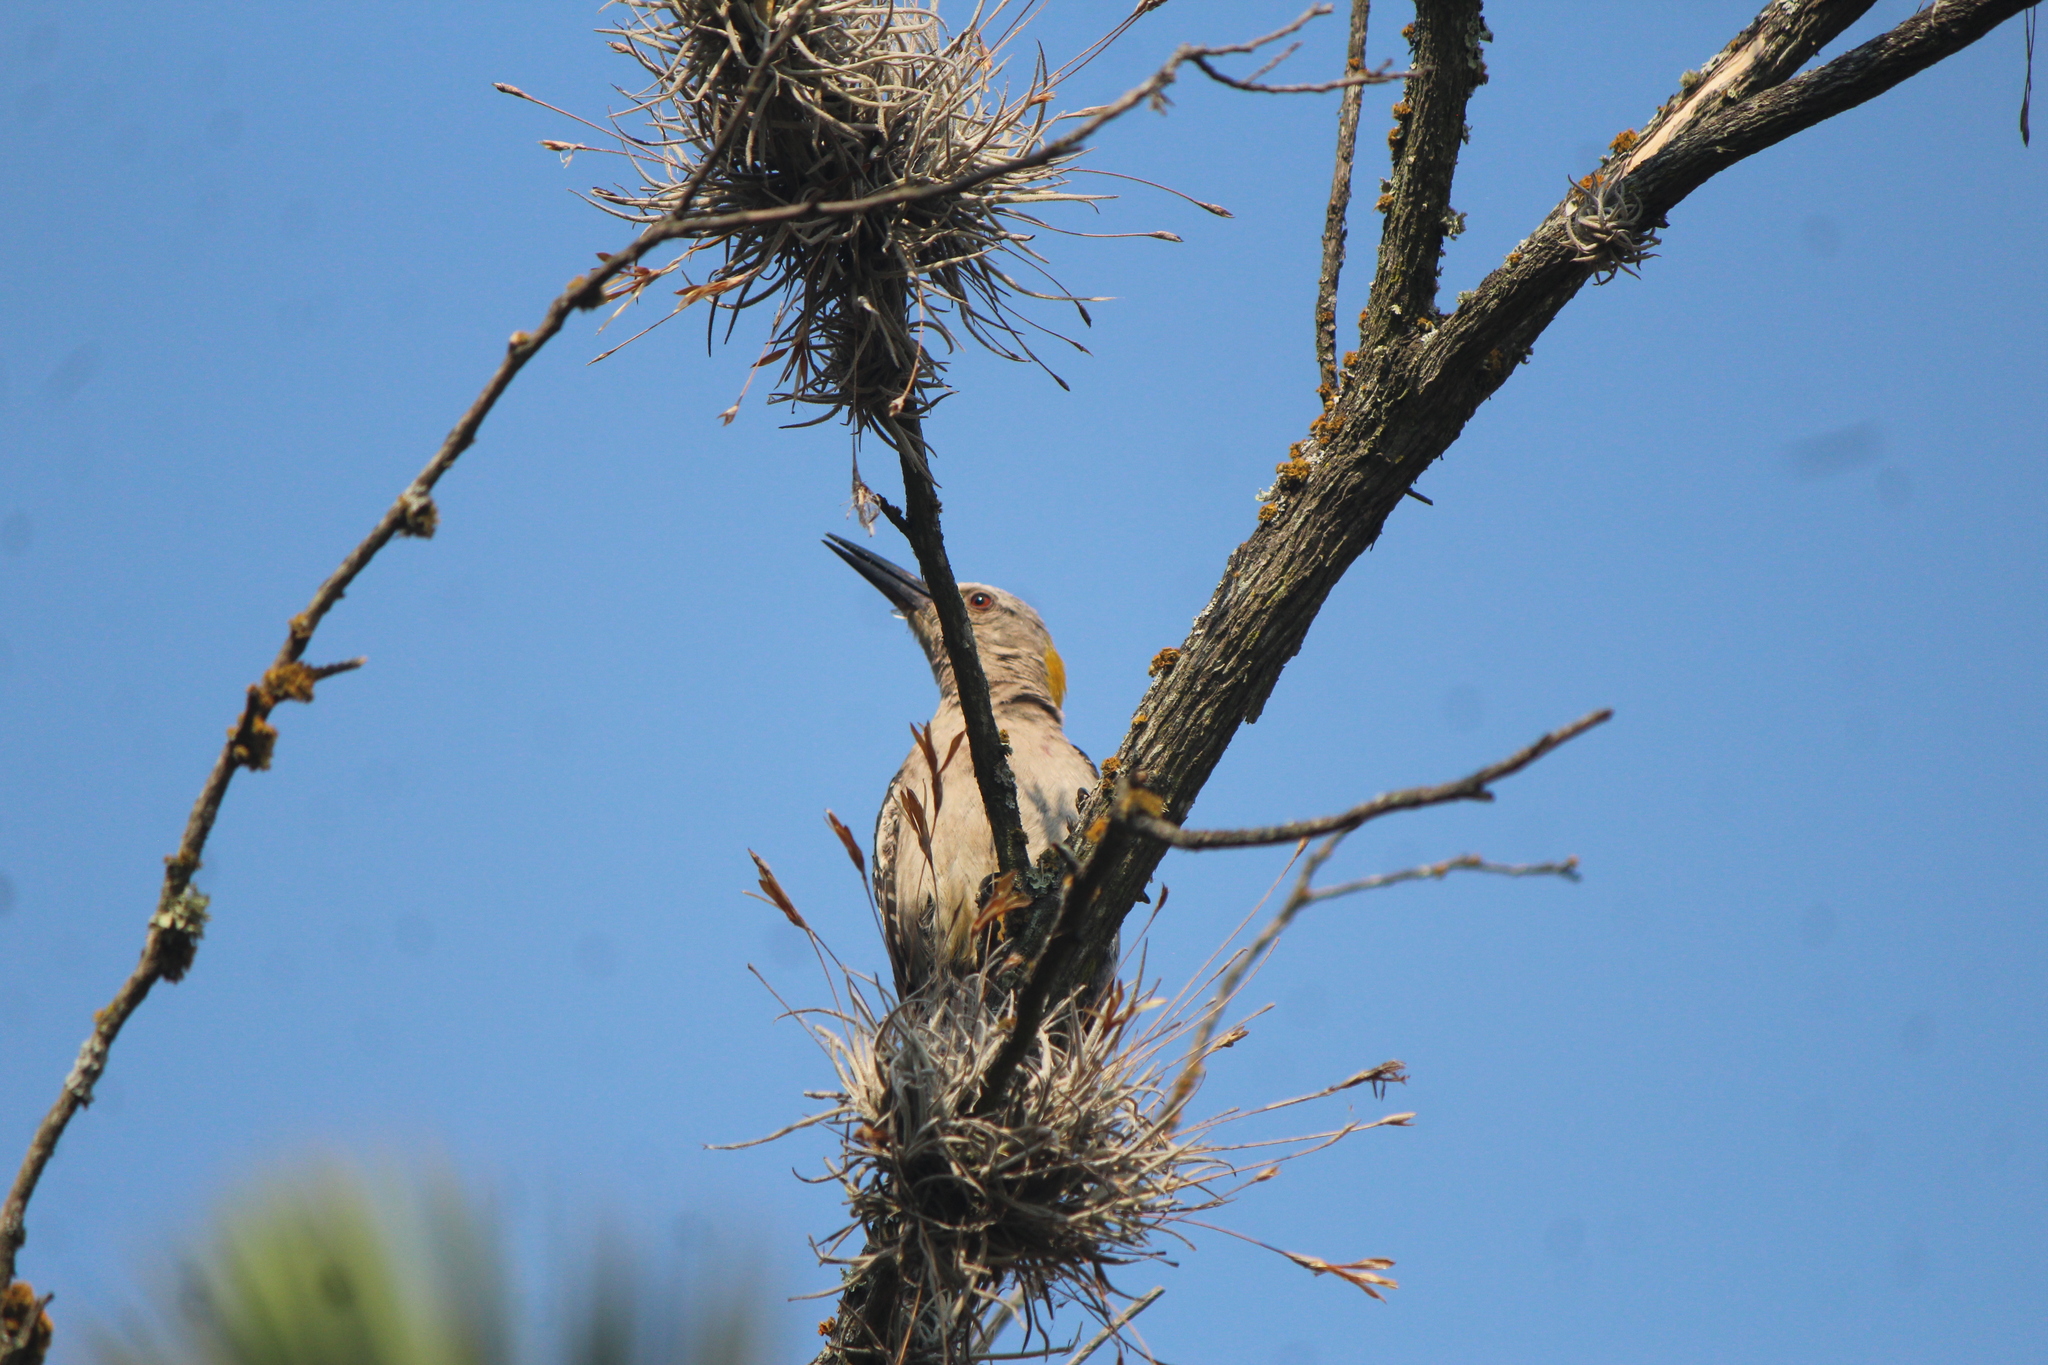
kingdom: Animalia
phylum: Chordata
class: Aves
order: Piciformes
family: Picidae
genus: Melanerpes
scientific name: Melanerpes aurifrons
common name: Golden-fronted woodpecker
